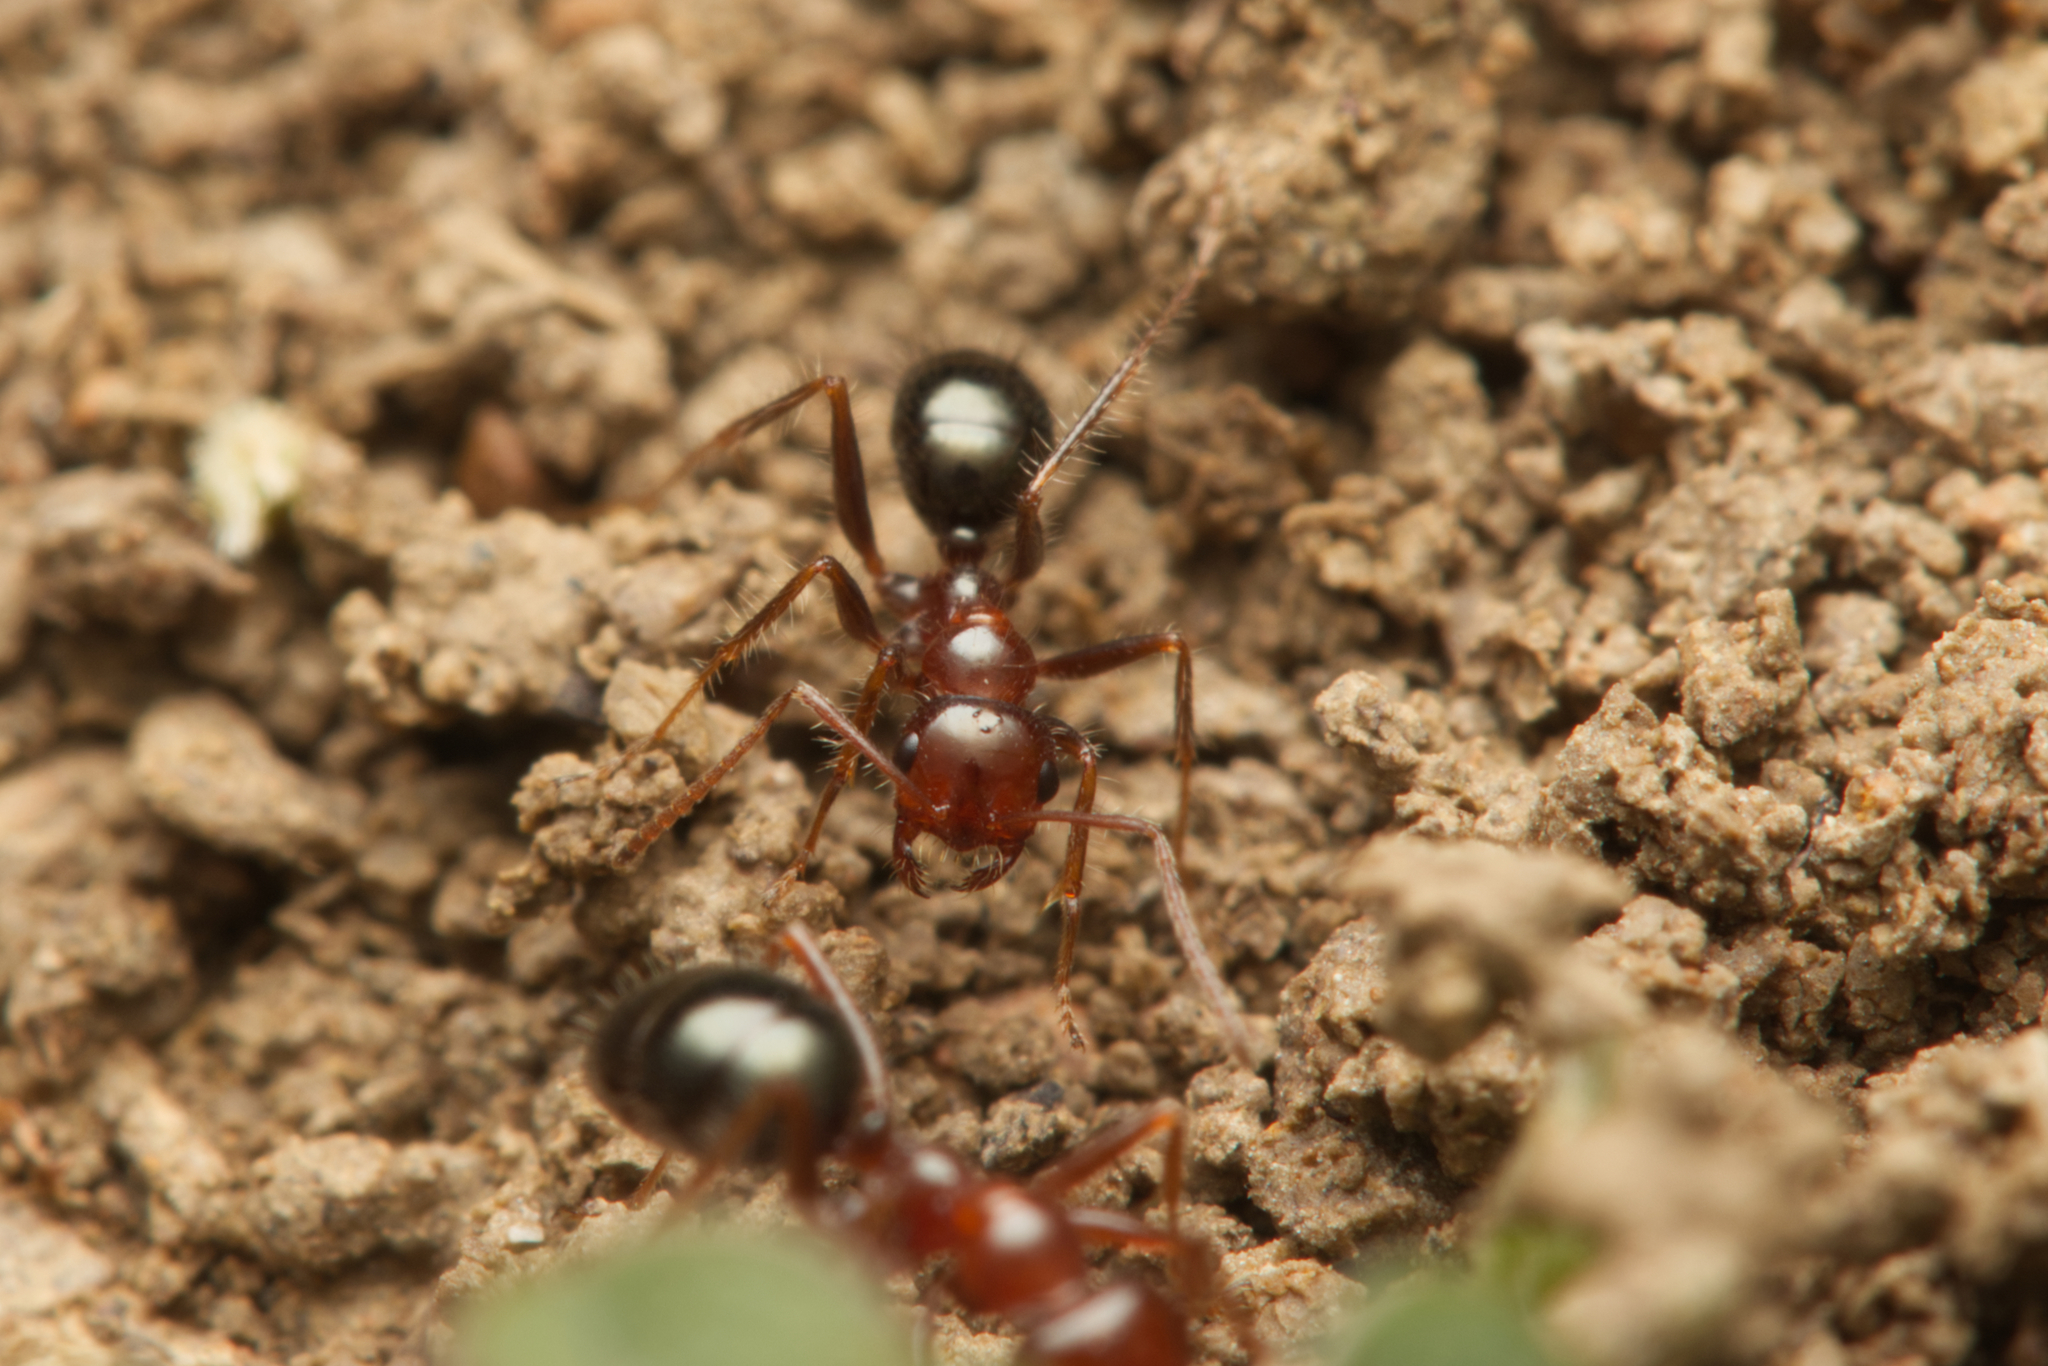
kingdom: Animalia
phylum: Arthropoda
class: Insecta
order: Hymenoptera
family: Formicidae
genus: Melophorus
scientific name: Melophorus turneri
